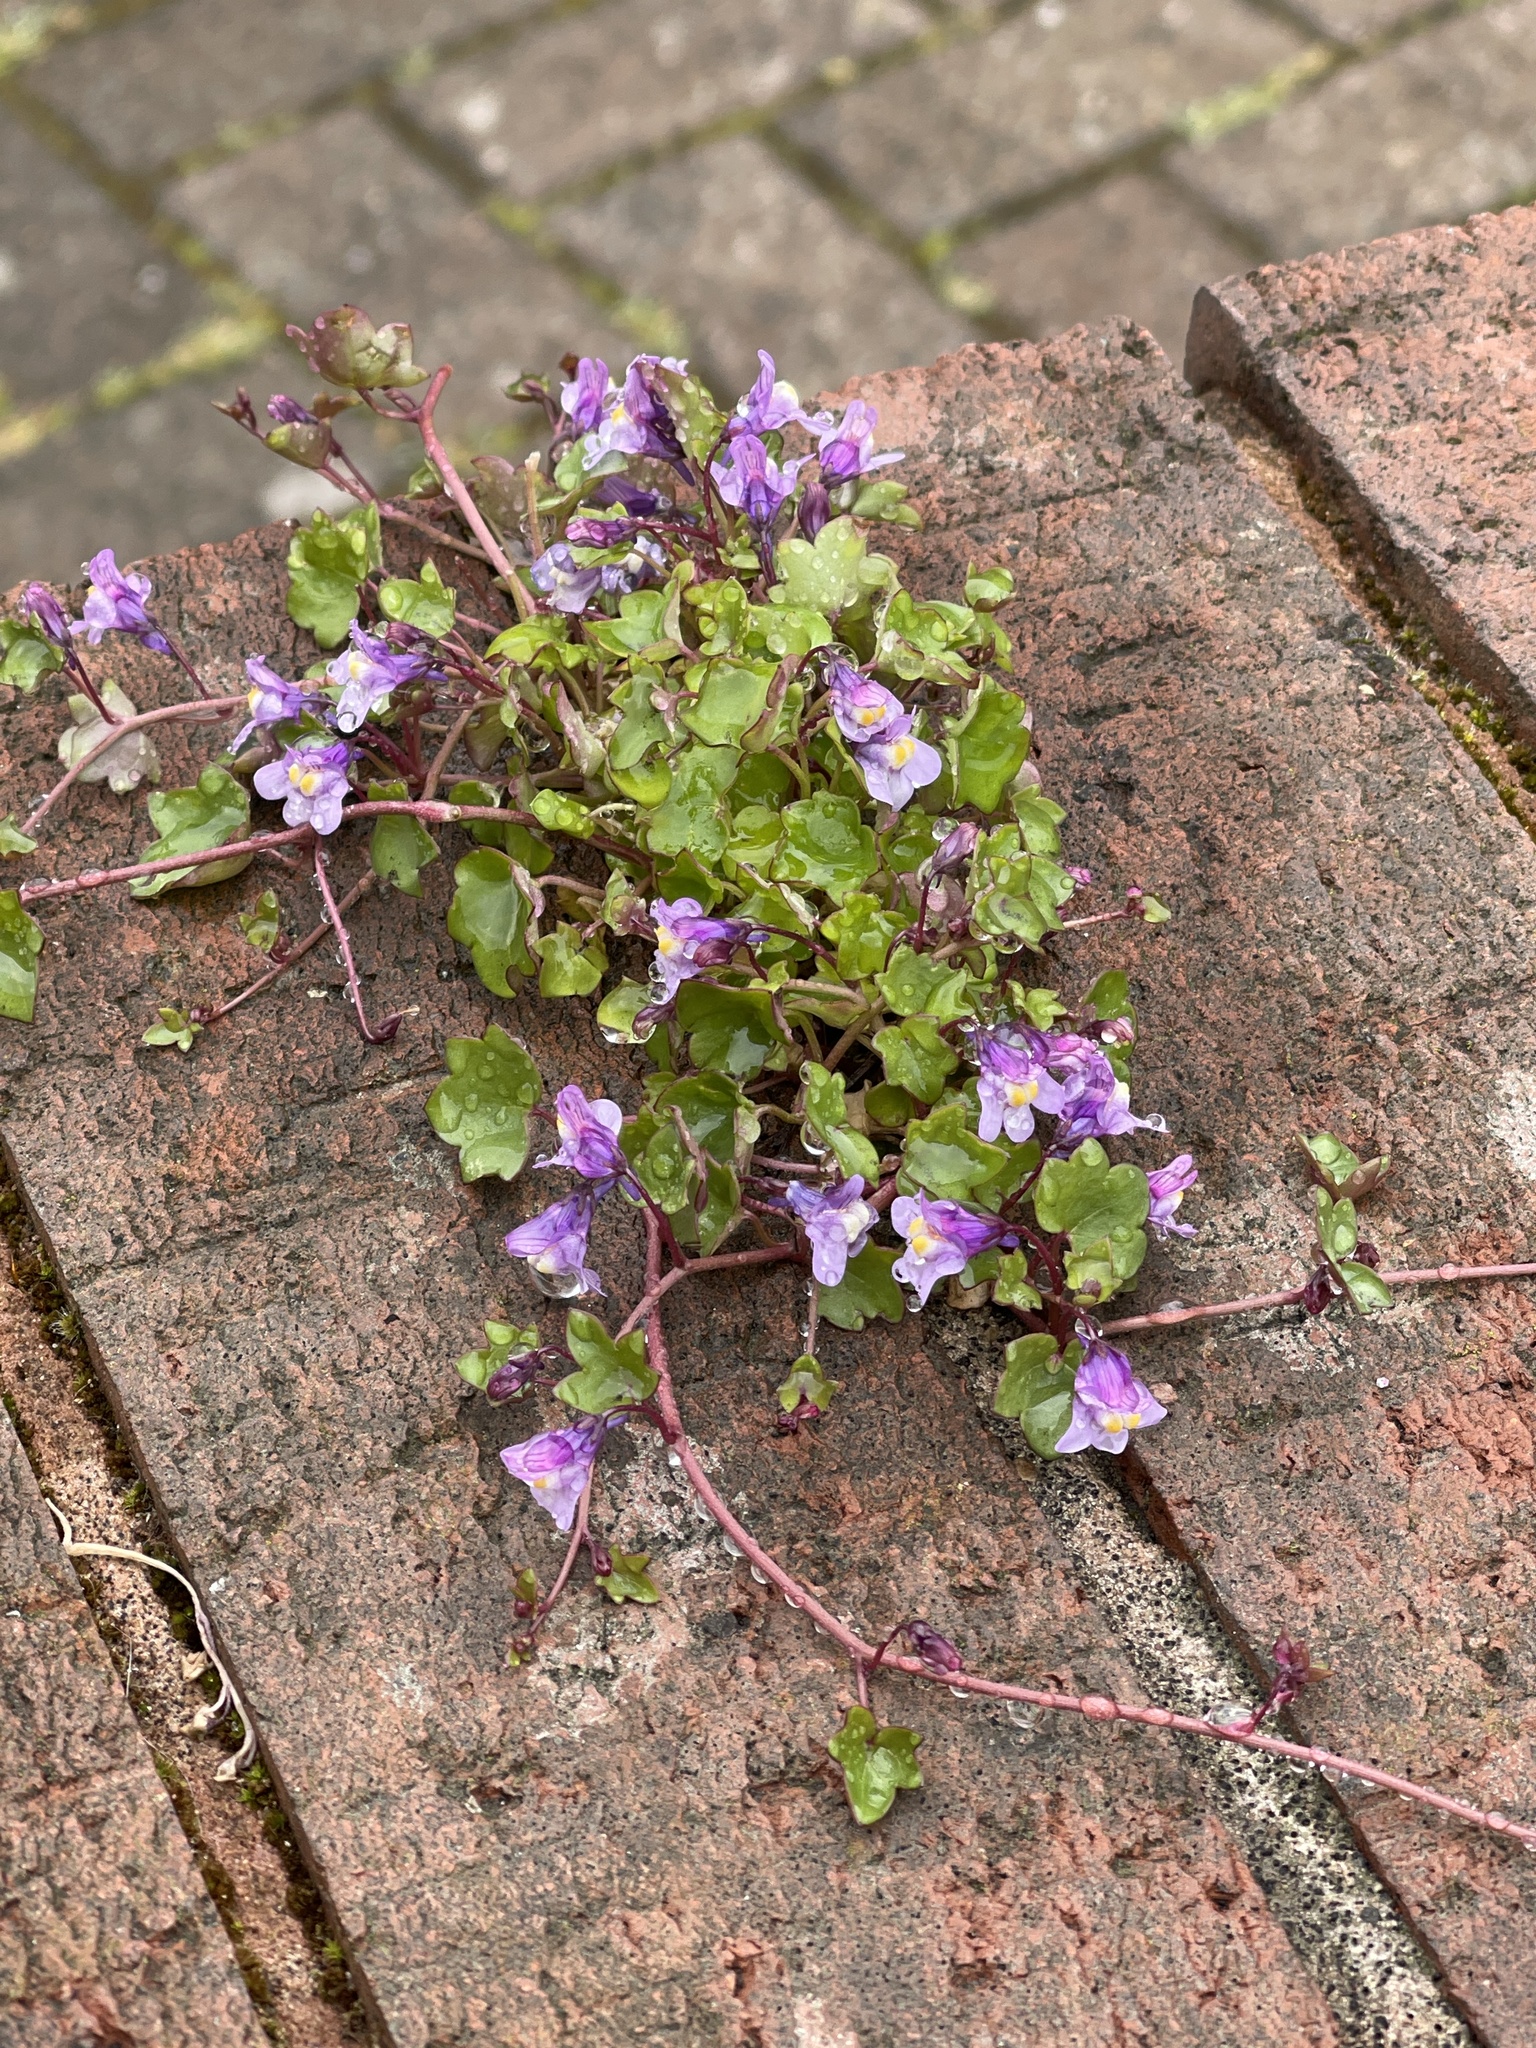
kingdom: Plantae
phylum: Tracheophyta
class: Magnoliopsida
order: Lamiales
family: Plantaginaceae
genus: Cymbalaria
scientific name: Cymbalaria muralis
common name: Ivy-leaved toadflax
